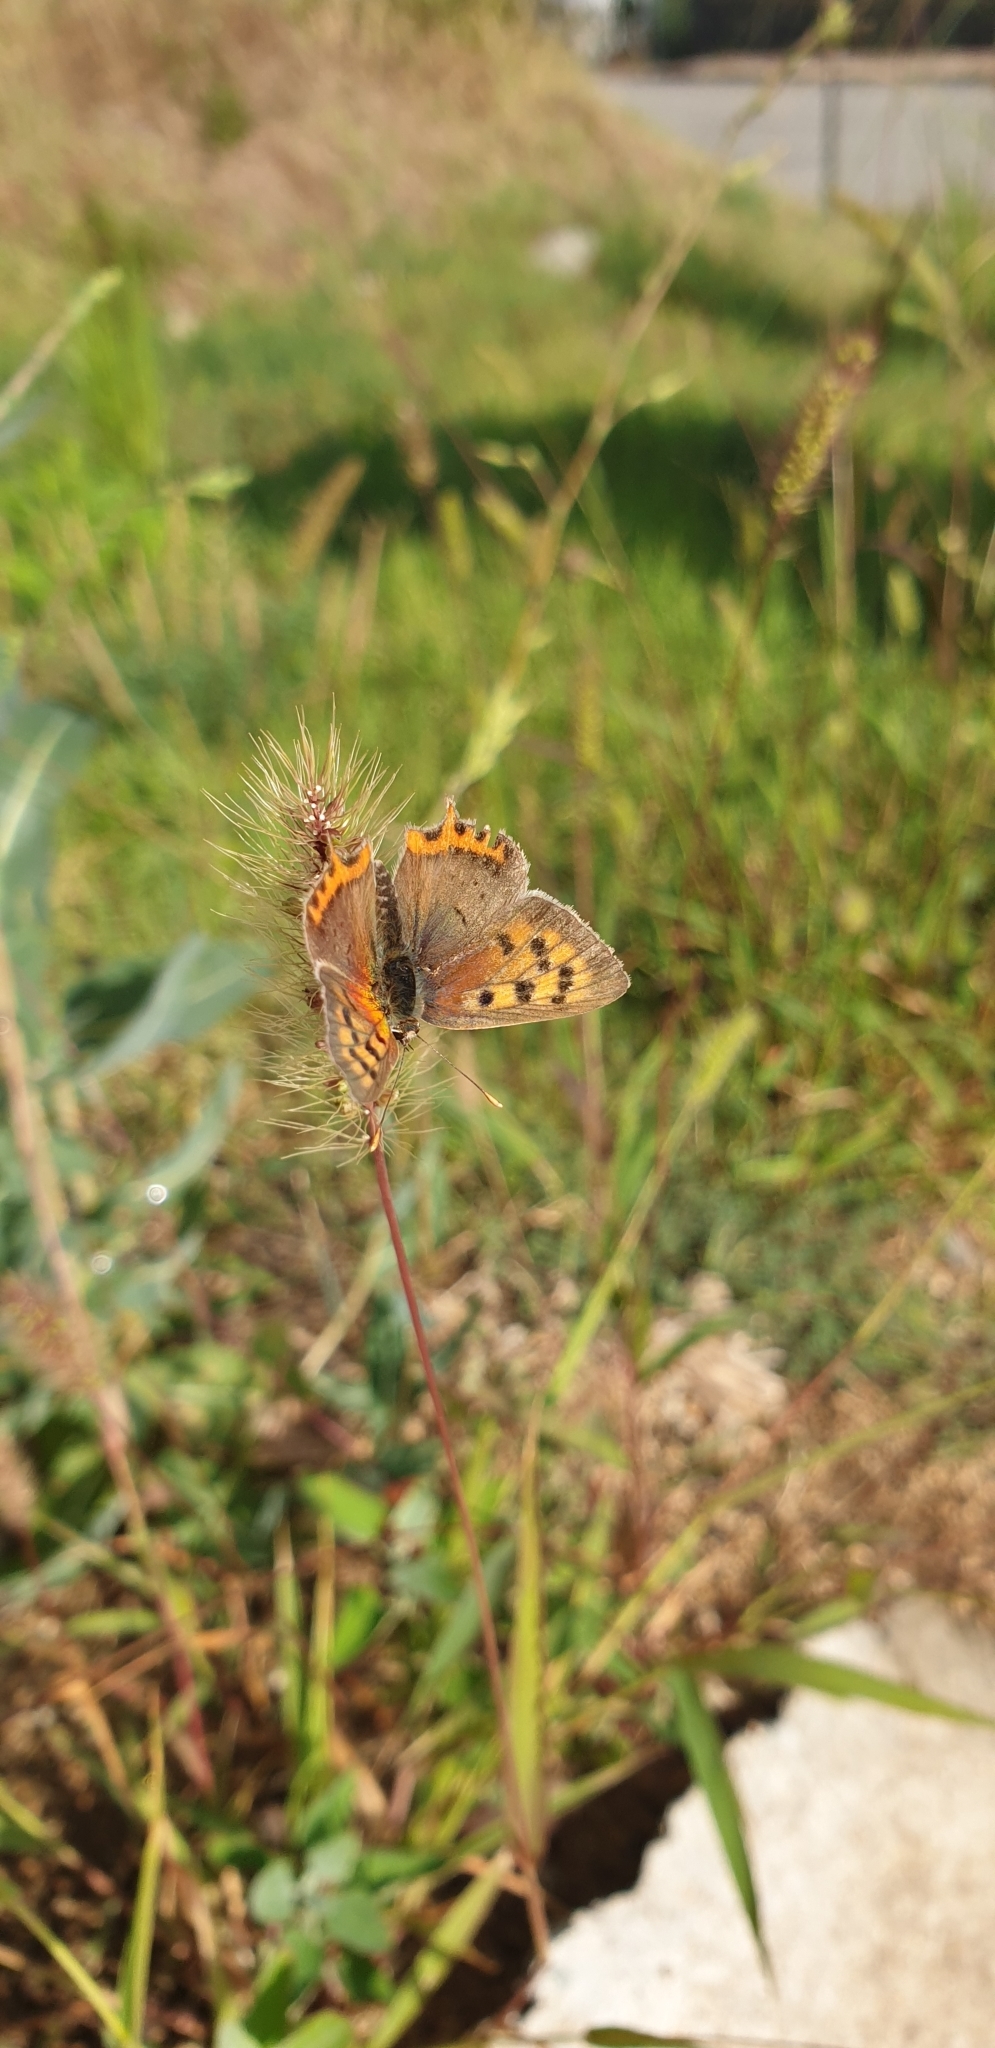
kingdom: Animalia
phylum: Arthropoda
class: Insecta
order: Lepidoptera
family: Lycaenidae
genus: Lycaena
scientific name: Lycaena phlaeas
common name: Small copper
